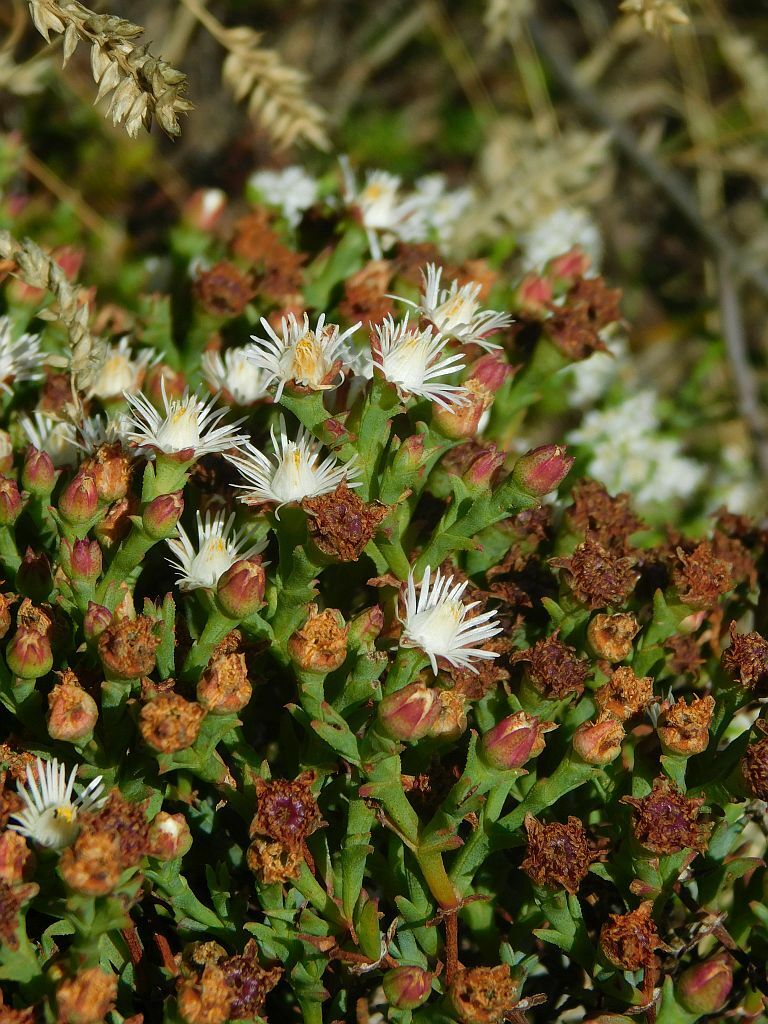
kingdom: Plantae
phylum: Tracheophyta
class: Magnoliopsida
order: Caryophyllales
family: Aizoaceae
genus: Ruschia
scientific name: Ruschia tenella
